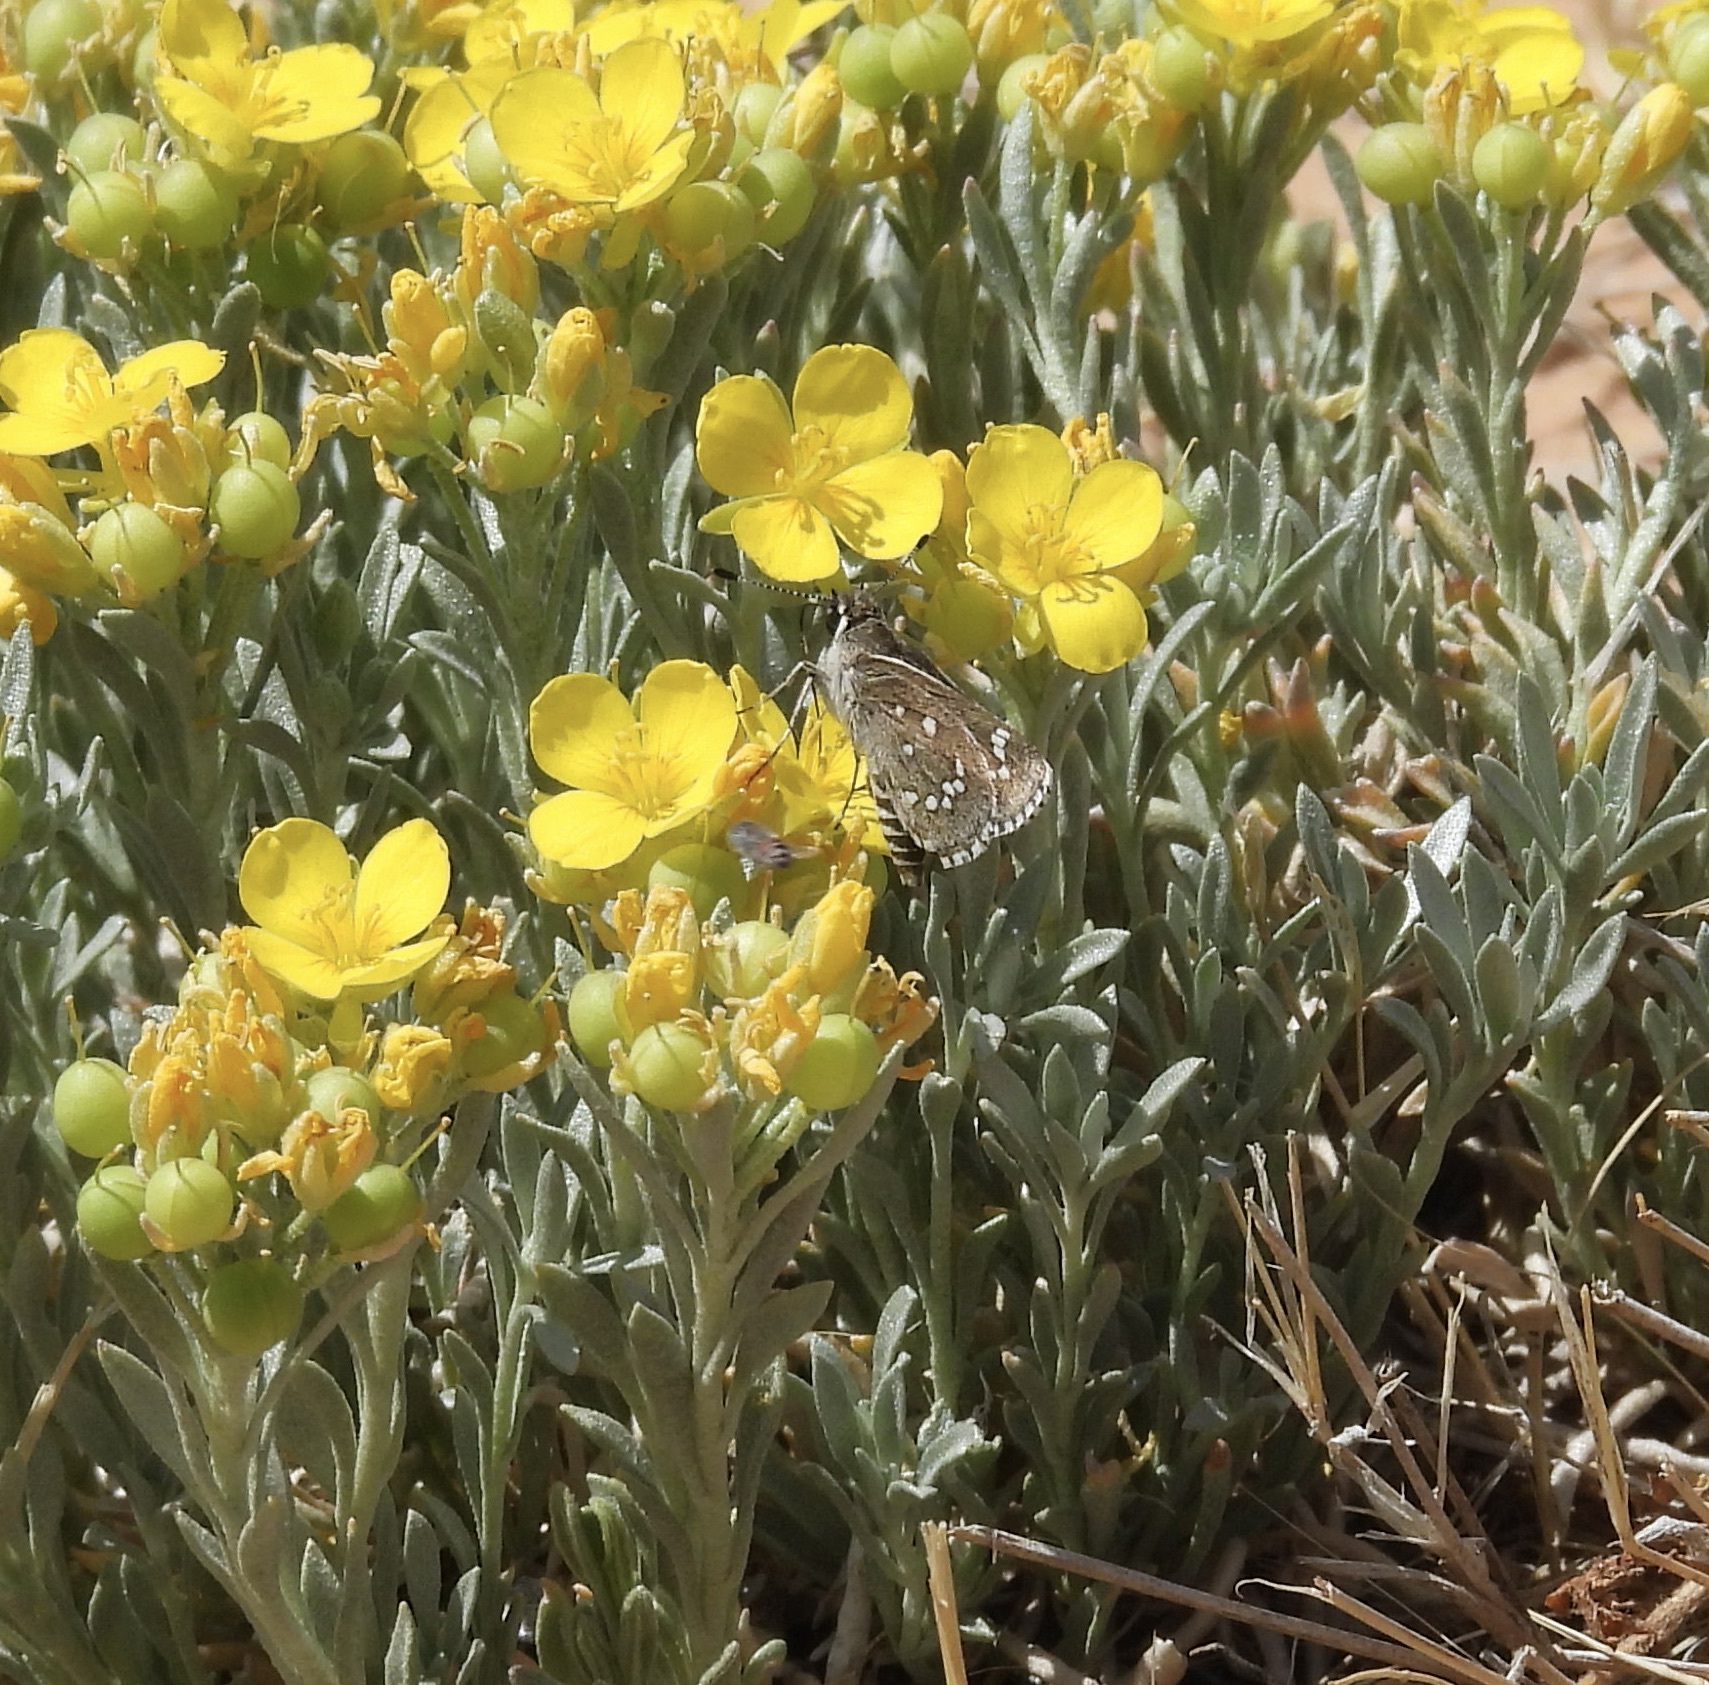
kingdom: Animalia
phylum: Arthropoda
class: Insecta
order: Lepidoptera
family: Hesperiidae
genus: Mastor
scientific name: Mastor eos
